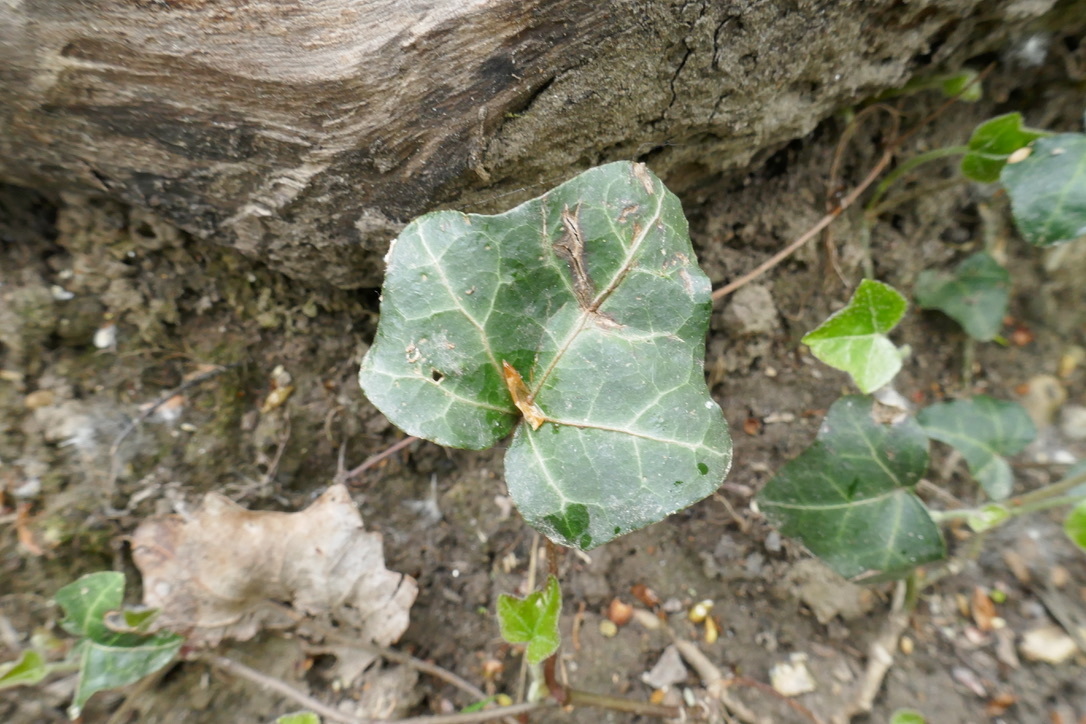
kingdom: Plantae
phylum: Tracheophyta
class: Magnoliopsida
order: Apiales
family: Araliaceae
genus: Hedera
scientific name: Hedera helix
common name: Ivy
